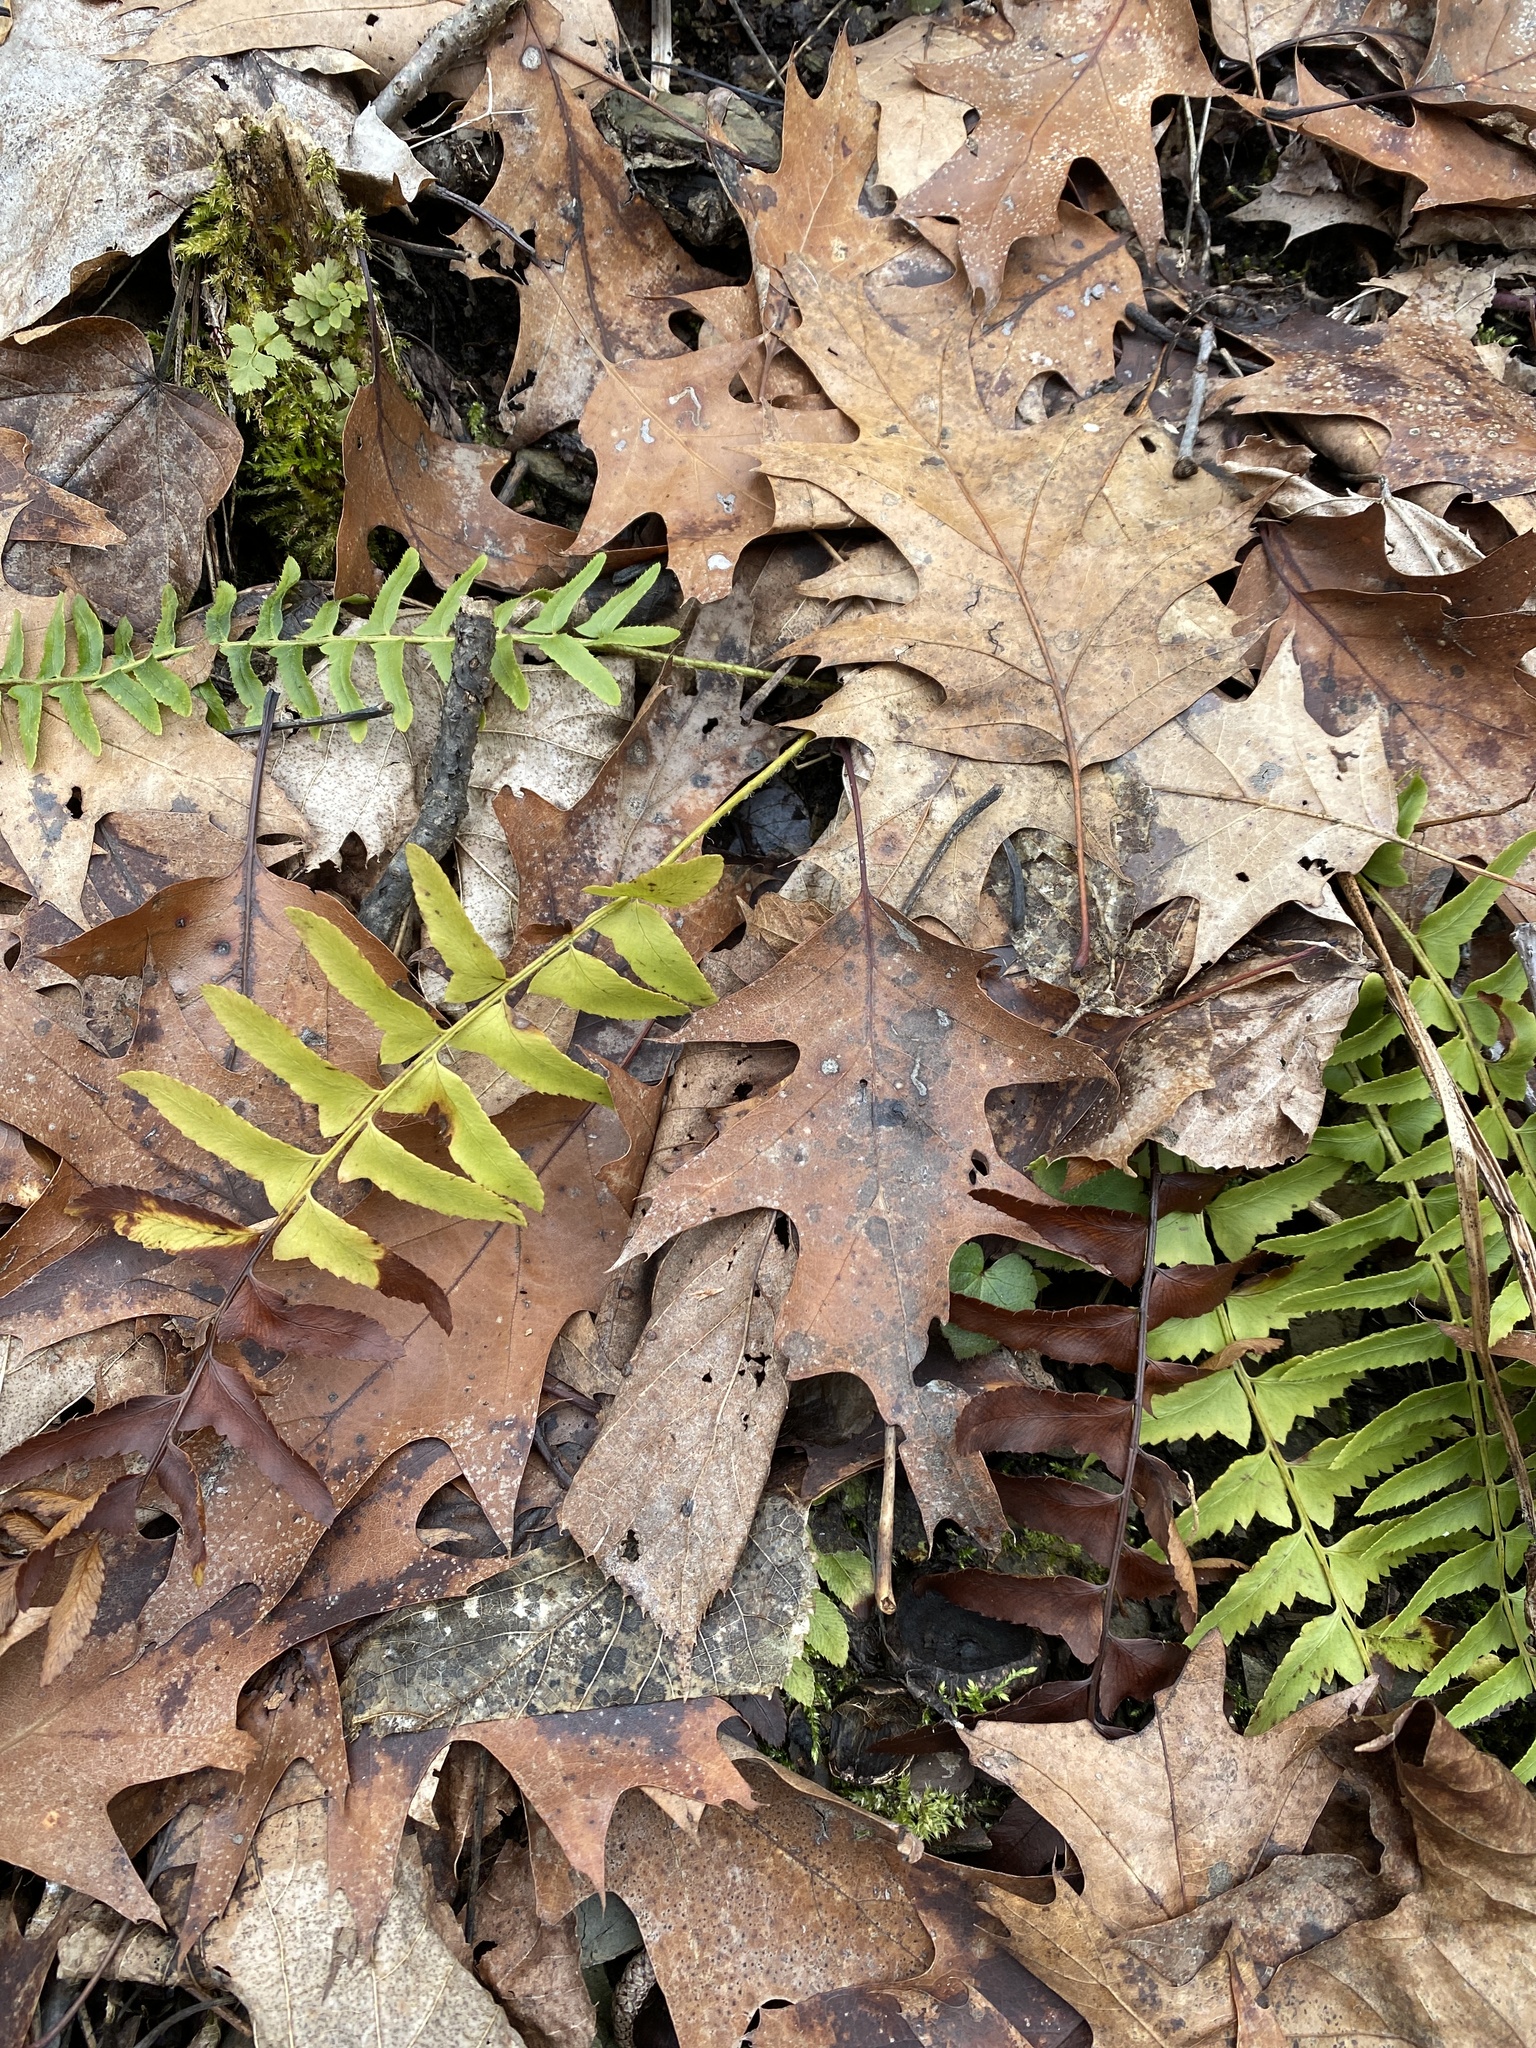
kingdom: Plantae
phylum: Tracheophyta
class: Polypodiopsida
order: Polypodiales
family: Dryopteridaceae
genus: Polystichum
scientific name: Polystichum acrostichoides
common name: Christmas fern
